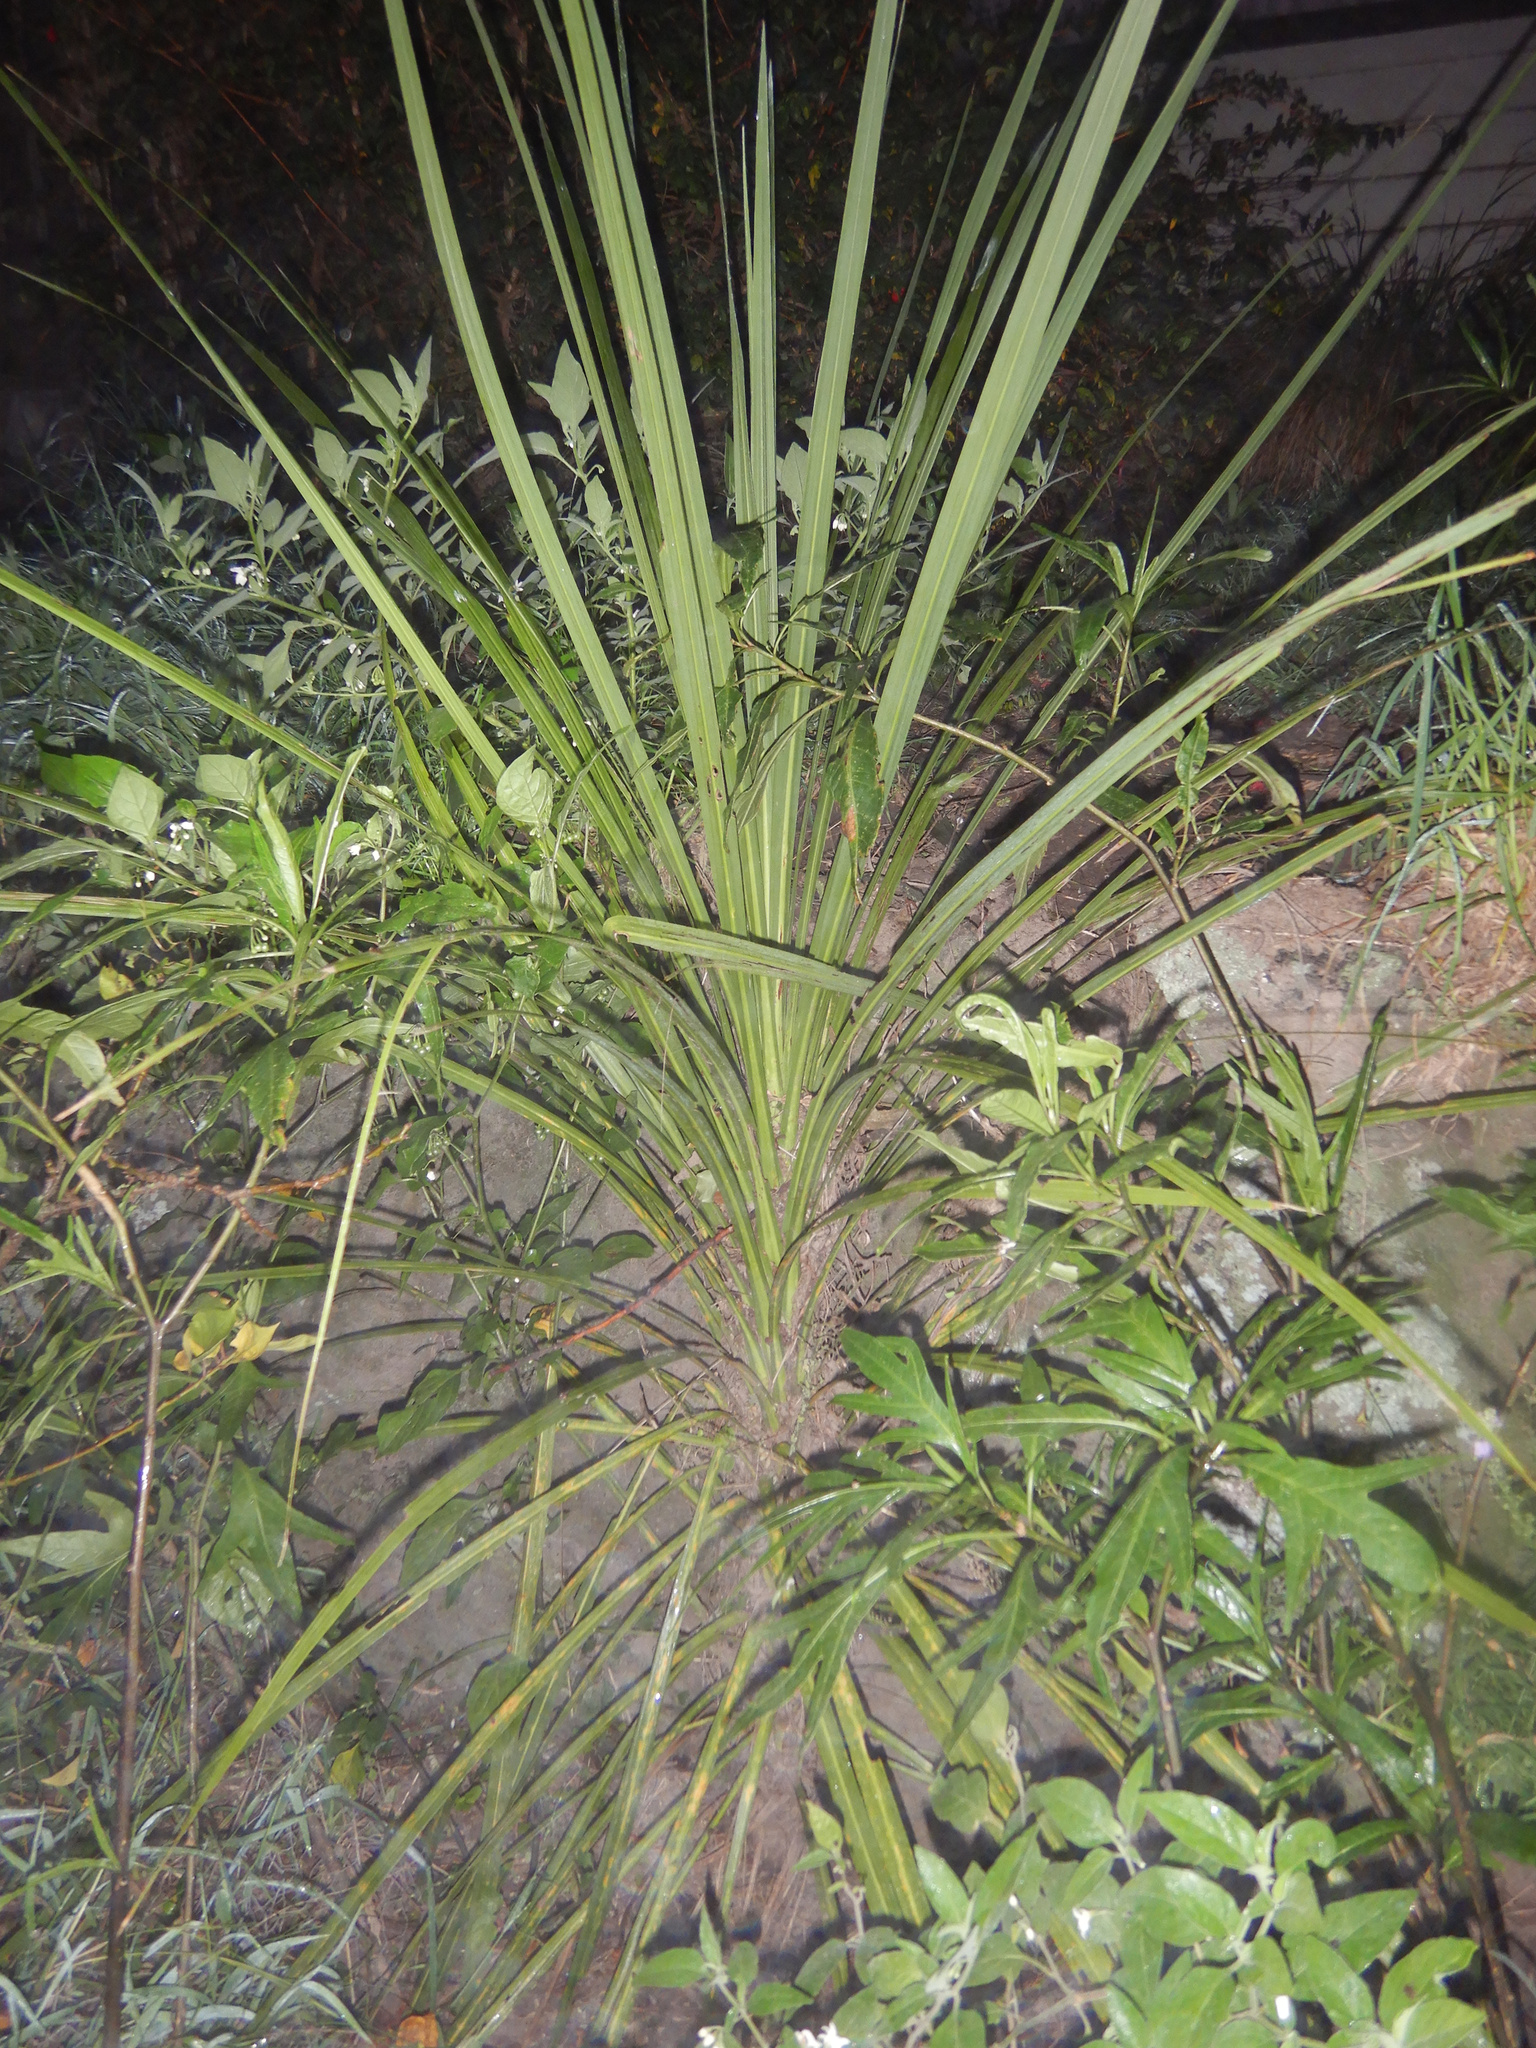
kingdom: Plantae
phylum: Tracheophyta
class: Liliopsida
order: Asparagales
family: Asparagaceae
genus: Cordyline
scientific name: Cordyline australis
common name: Cabbage-palm
